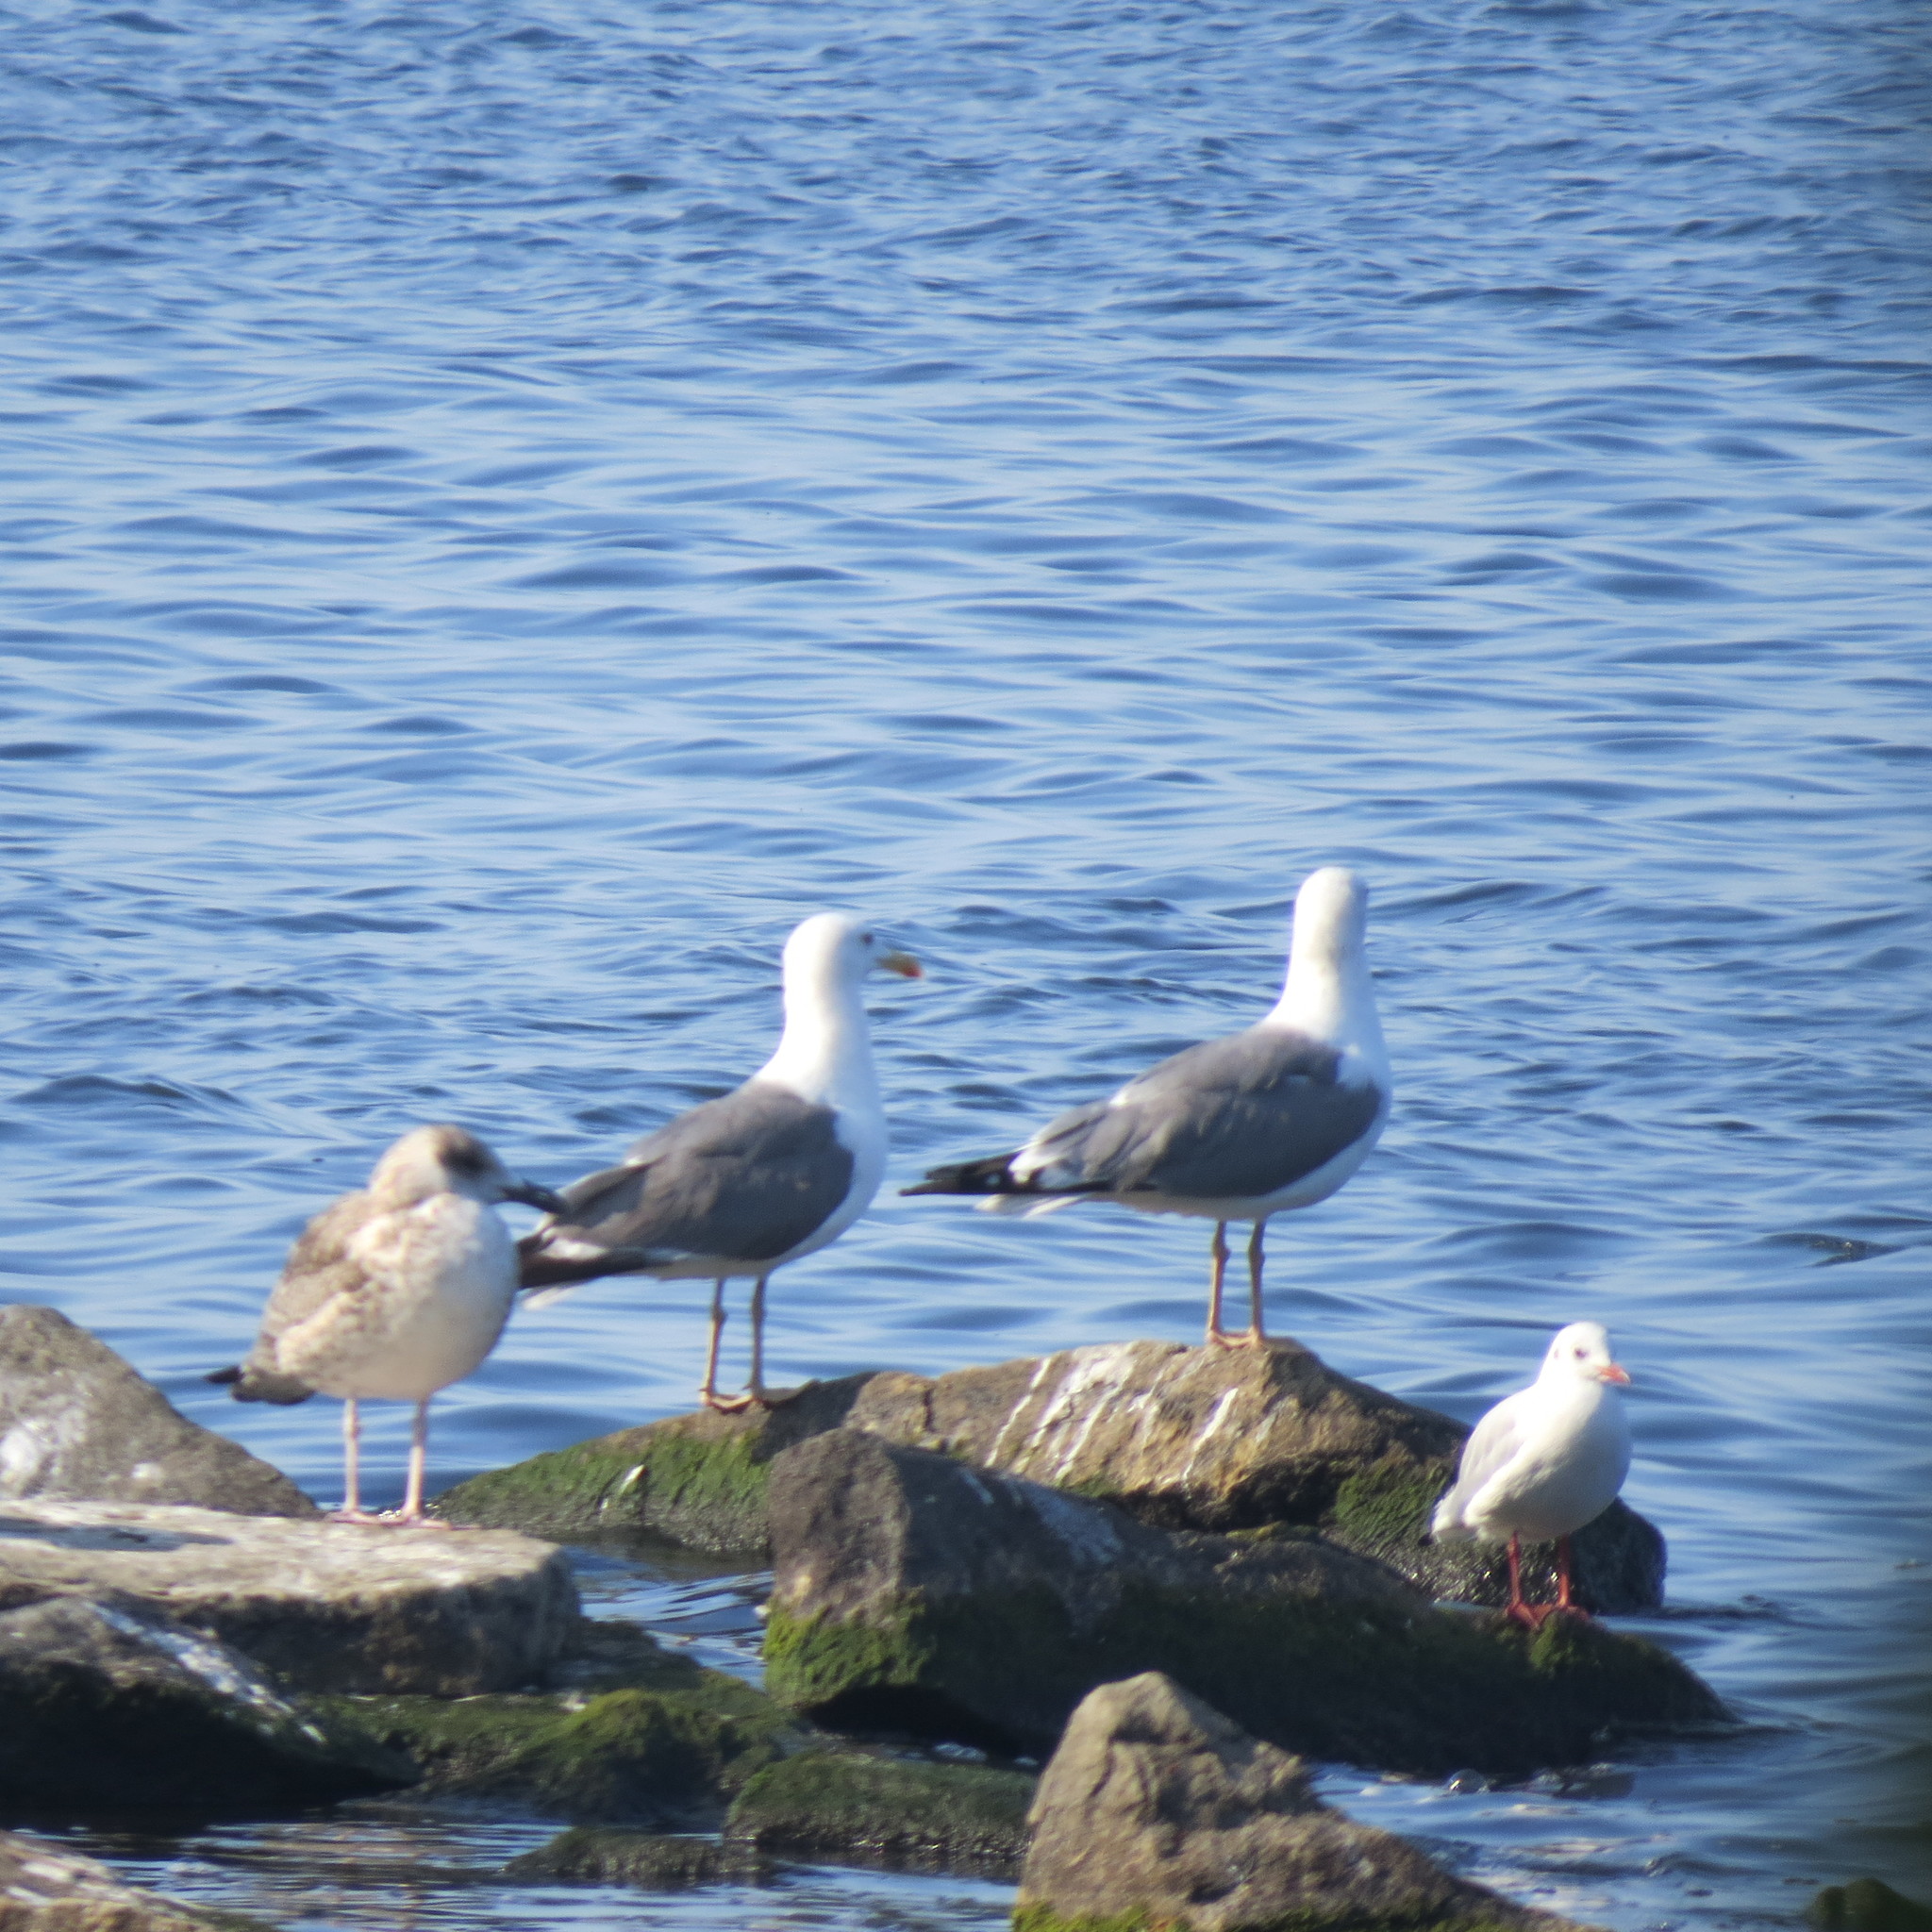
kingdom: Animalia
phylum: Chordata
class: Aves
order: Charadriiformes
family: Laridae
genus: Larus
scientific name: Larus fuscus
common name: Lesser black-backed gull
